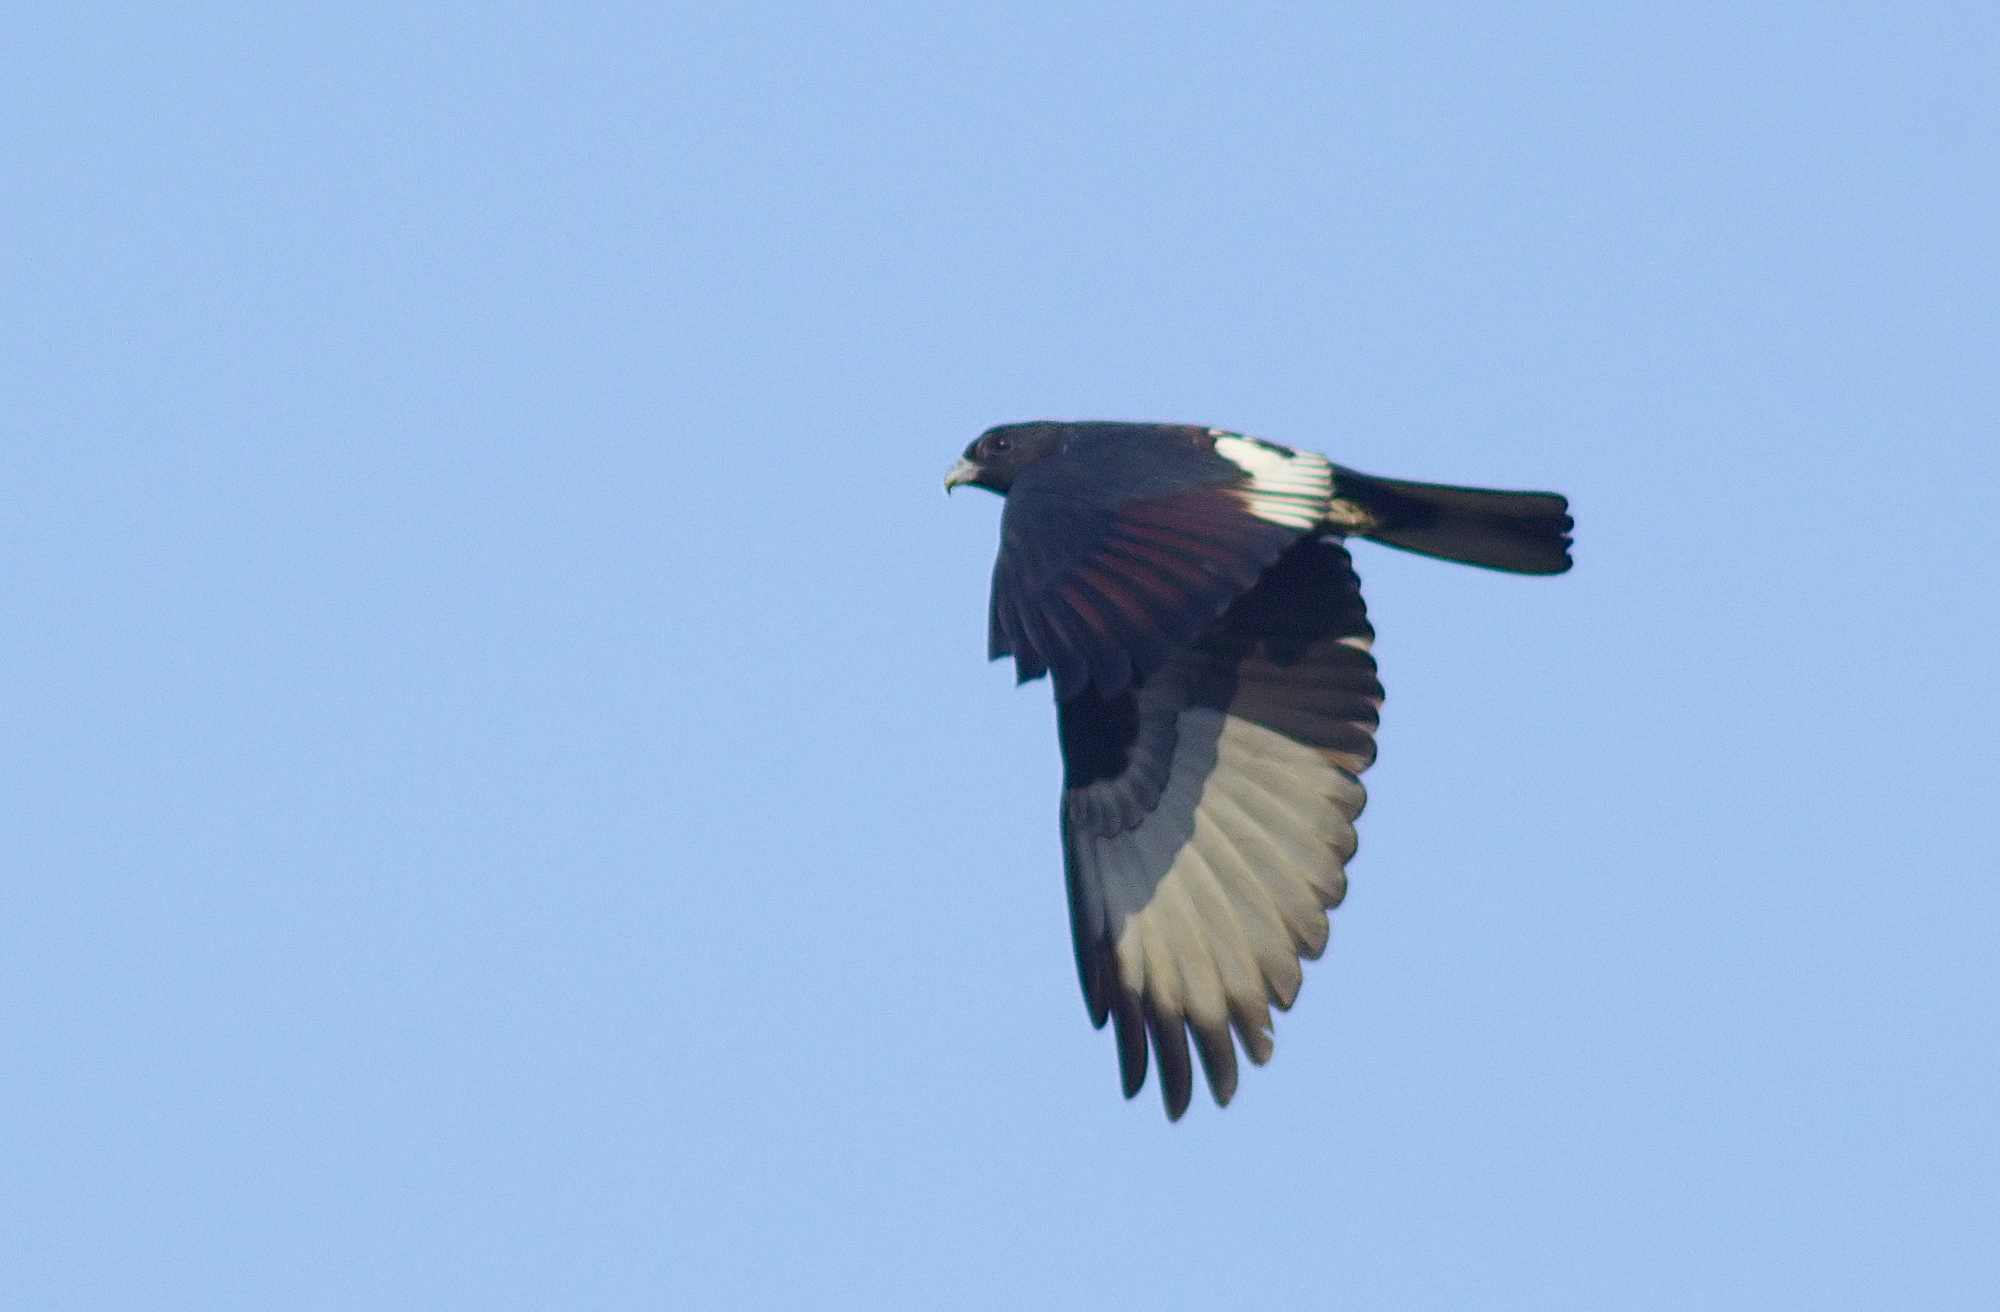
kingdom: Animalia
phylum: Chordata
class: Aves
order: Accipitriformes
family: Accipitridae
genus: Aviceda
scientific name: Aviceda leuphotes
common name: Black baza
